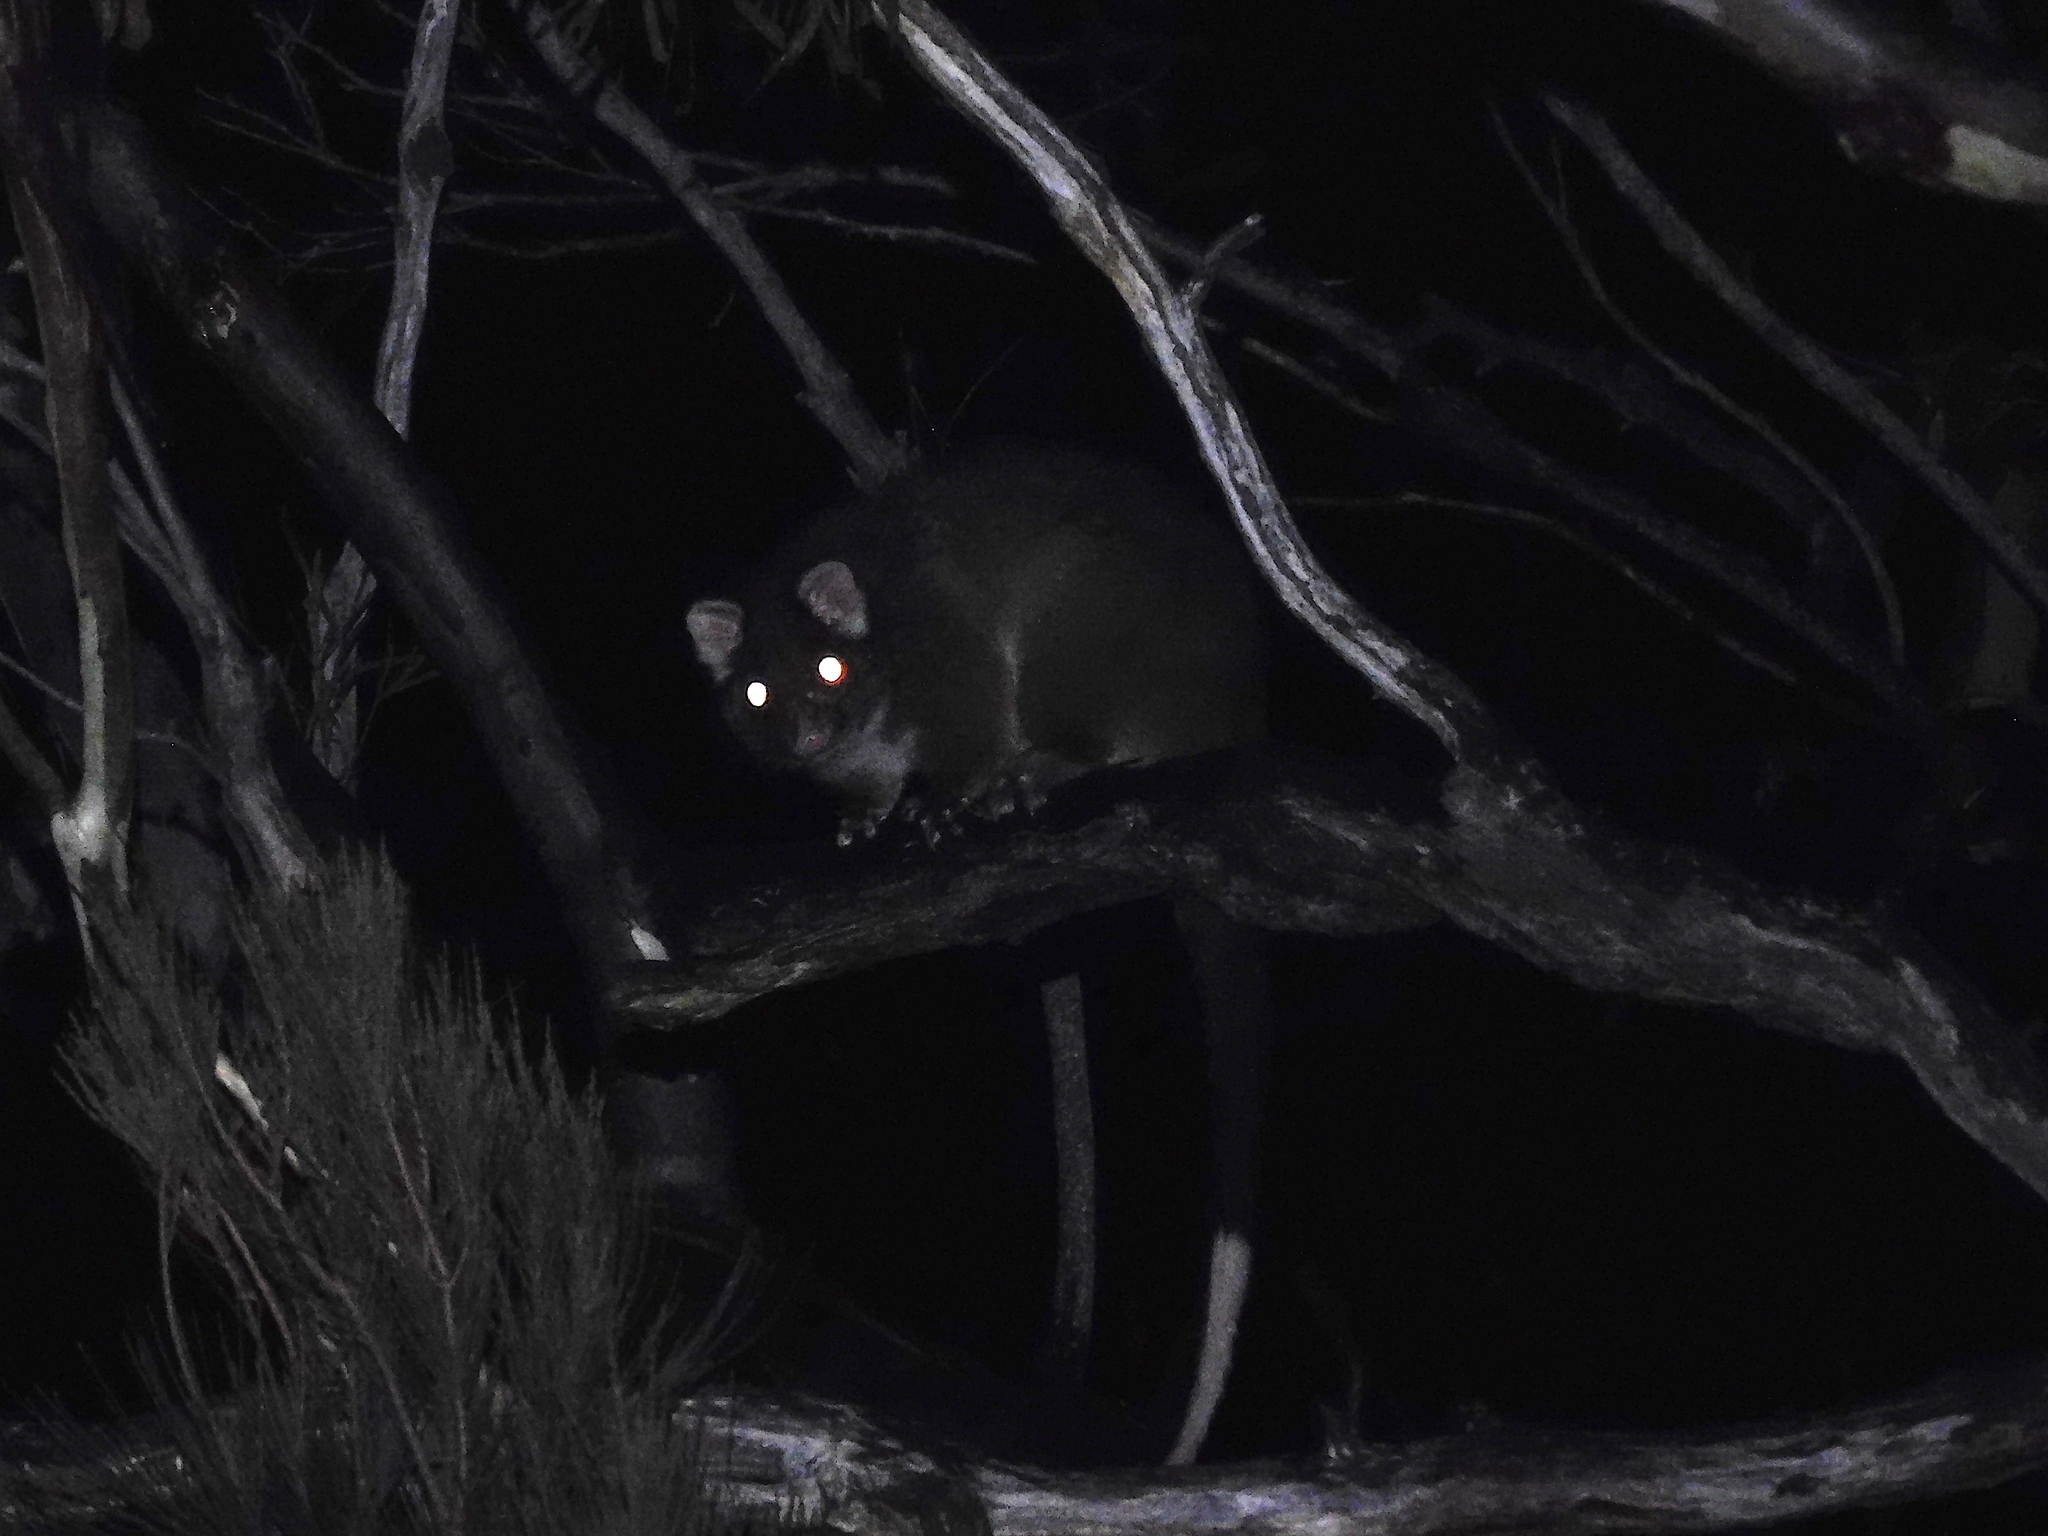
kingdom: Animalia
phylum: Chordata
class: Mammalia
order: Diprotodontia
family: Pseudocheiridae
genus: Pseudocheirus
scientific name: Pseudocheirus peregrinus
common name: Common ringtail possum
